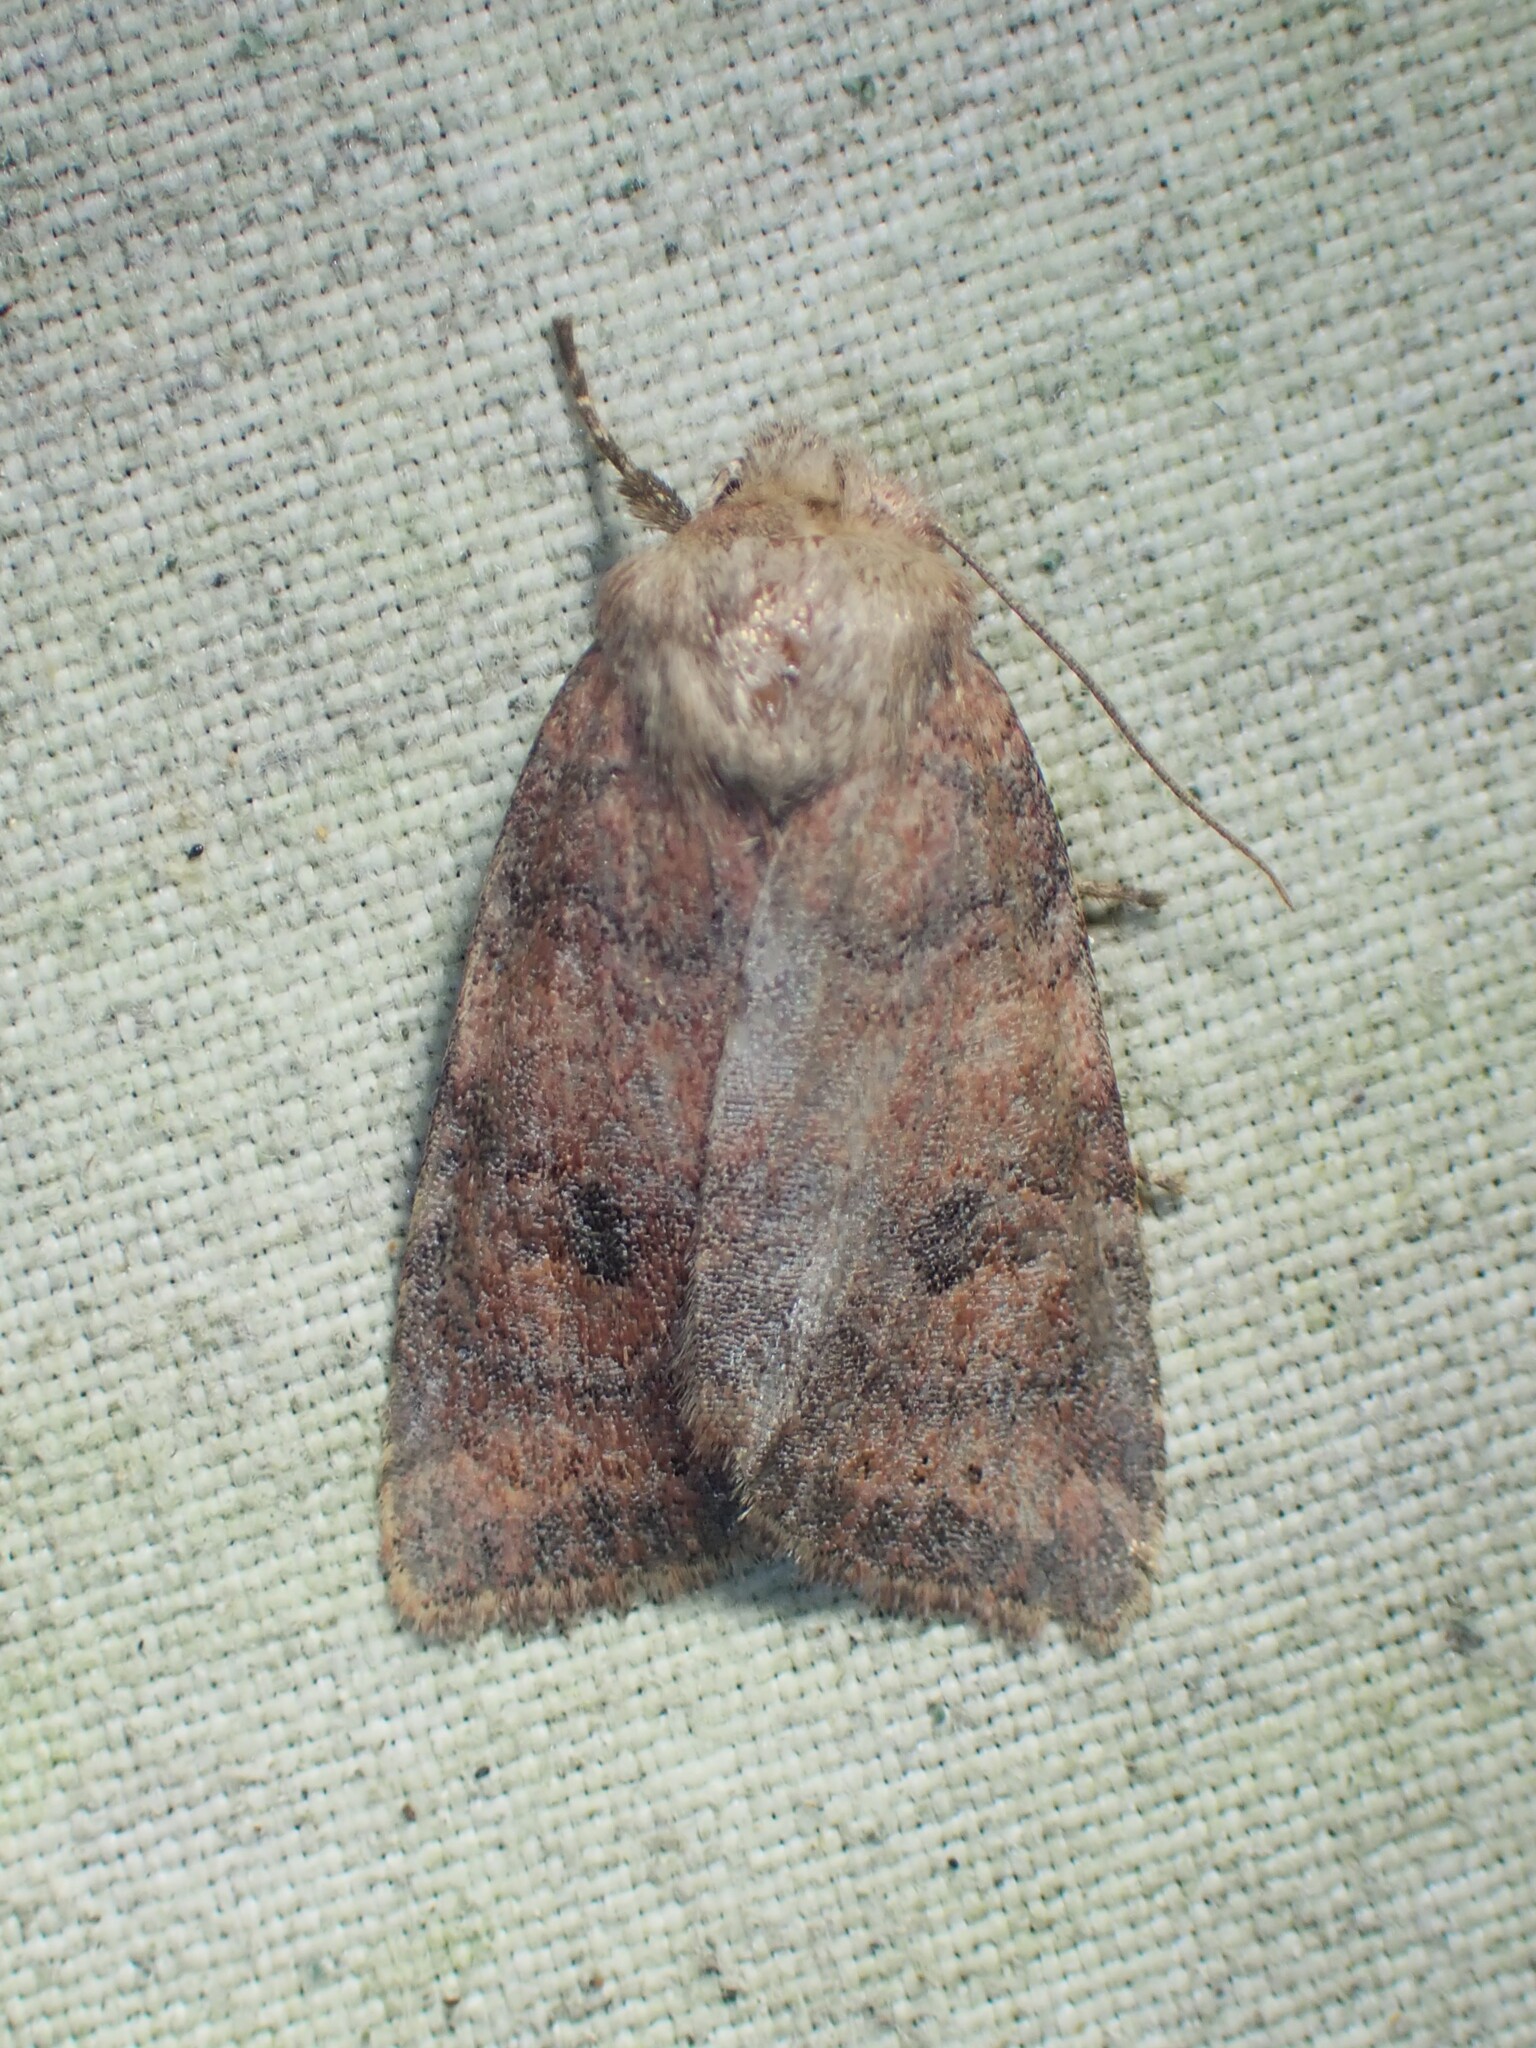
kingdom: Animalia
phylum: Arthropoda
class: Insecta
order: Lepidoptera
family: Noctuidae
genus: Anathix
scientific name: Anathix puta
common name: Puta sallow
